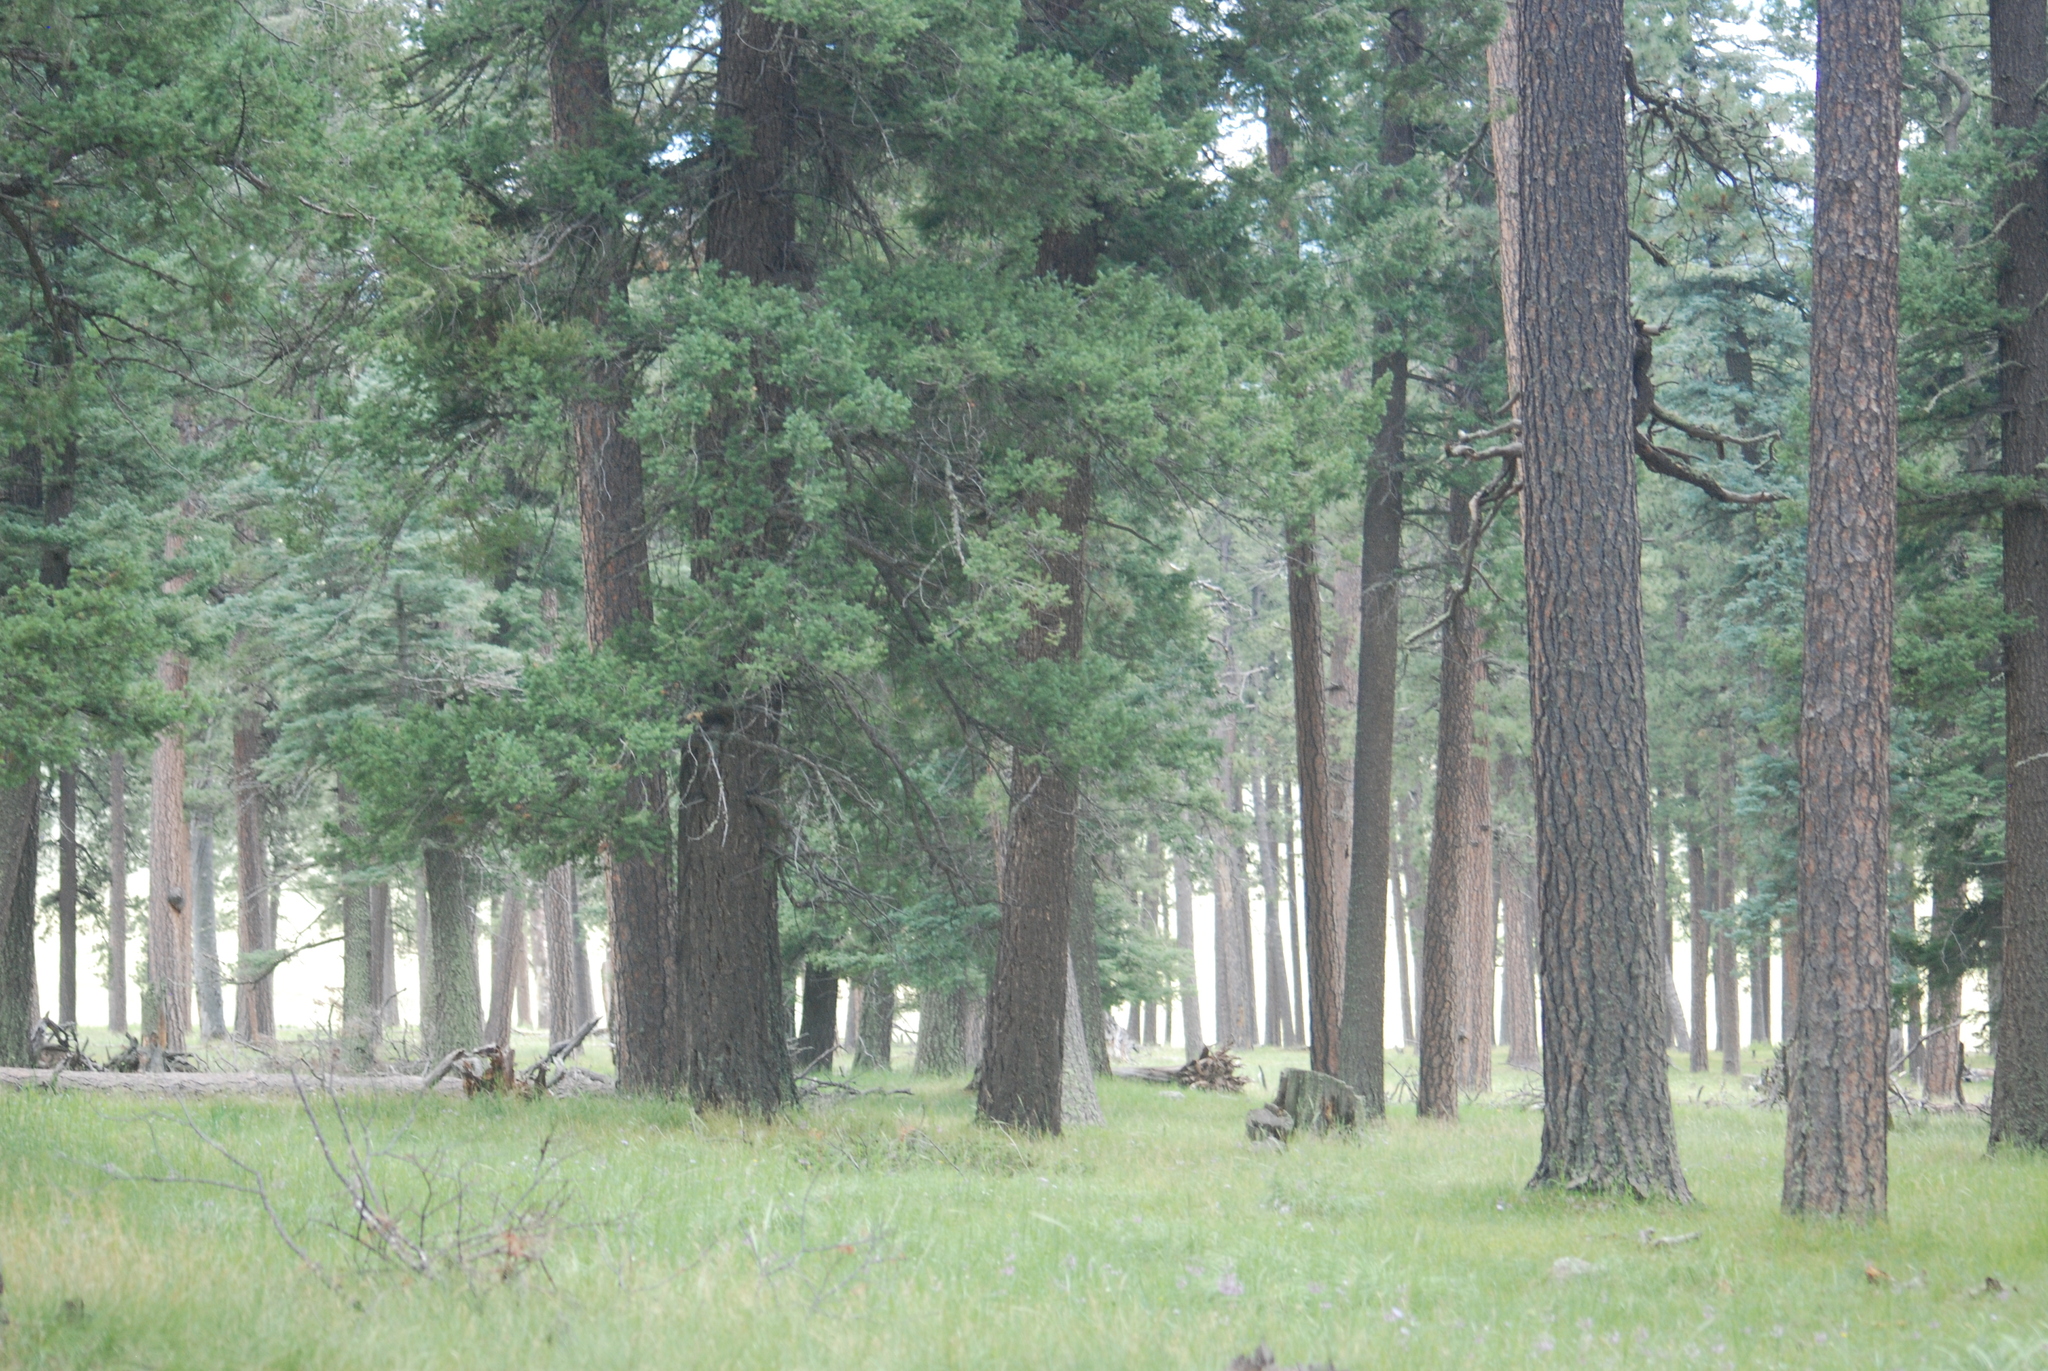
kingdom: Plantae
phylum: Tracheophyta
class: Pinopsida
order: Pinales
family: Pinaceae
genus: Pinus
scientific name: Pinus ponderosa
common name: Western yellow-pine
